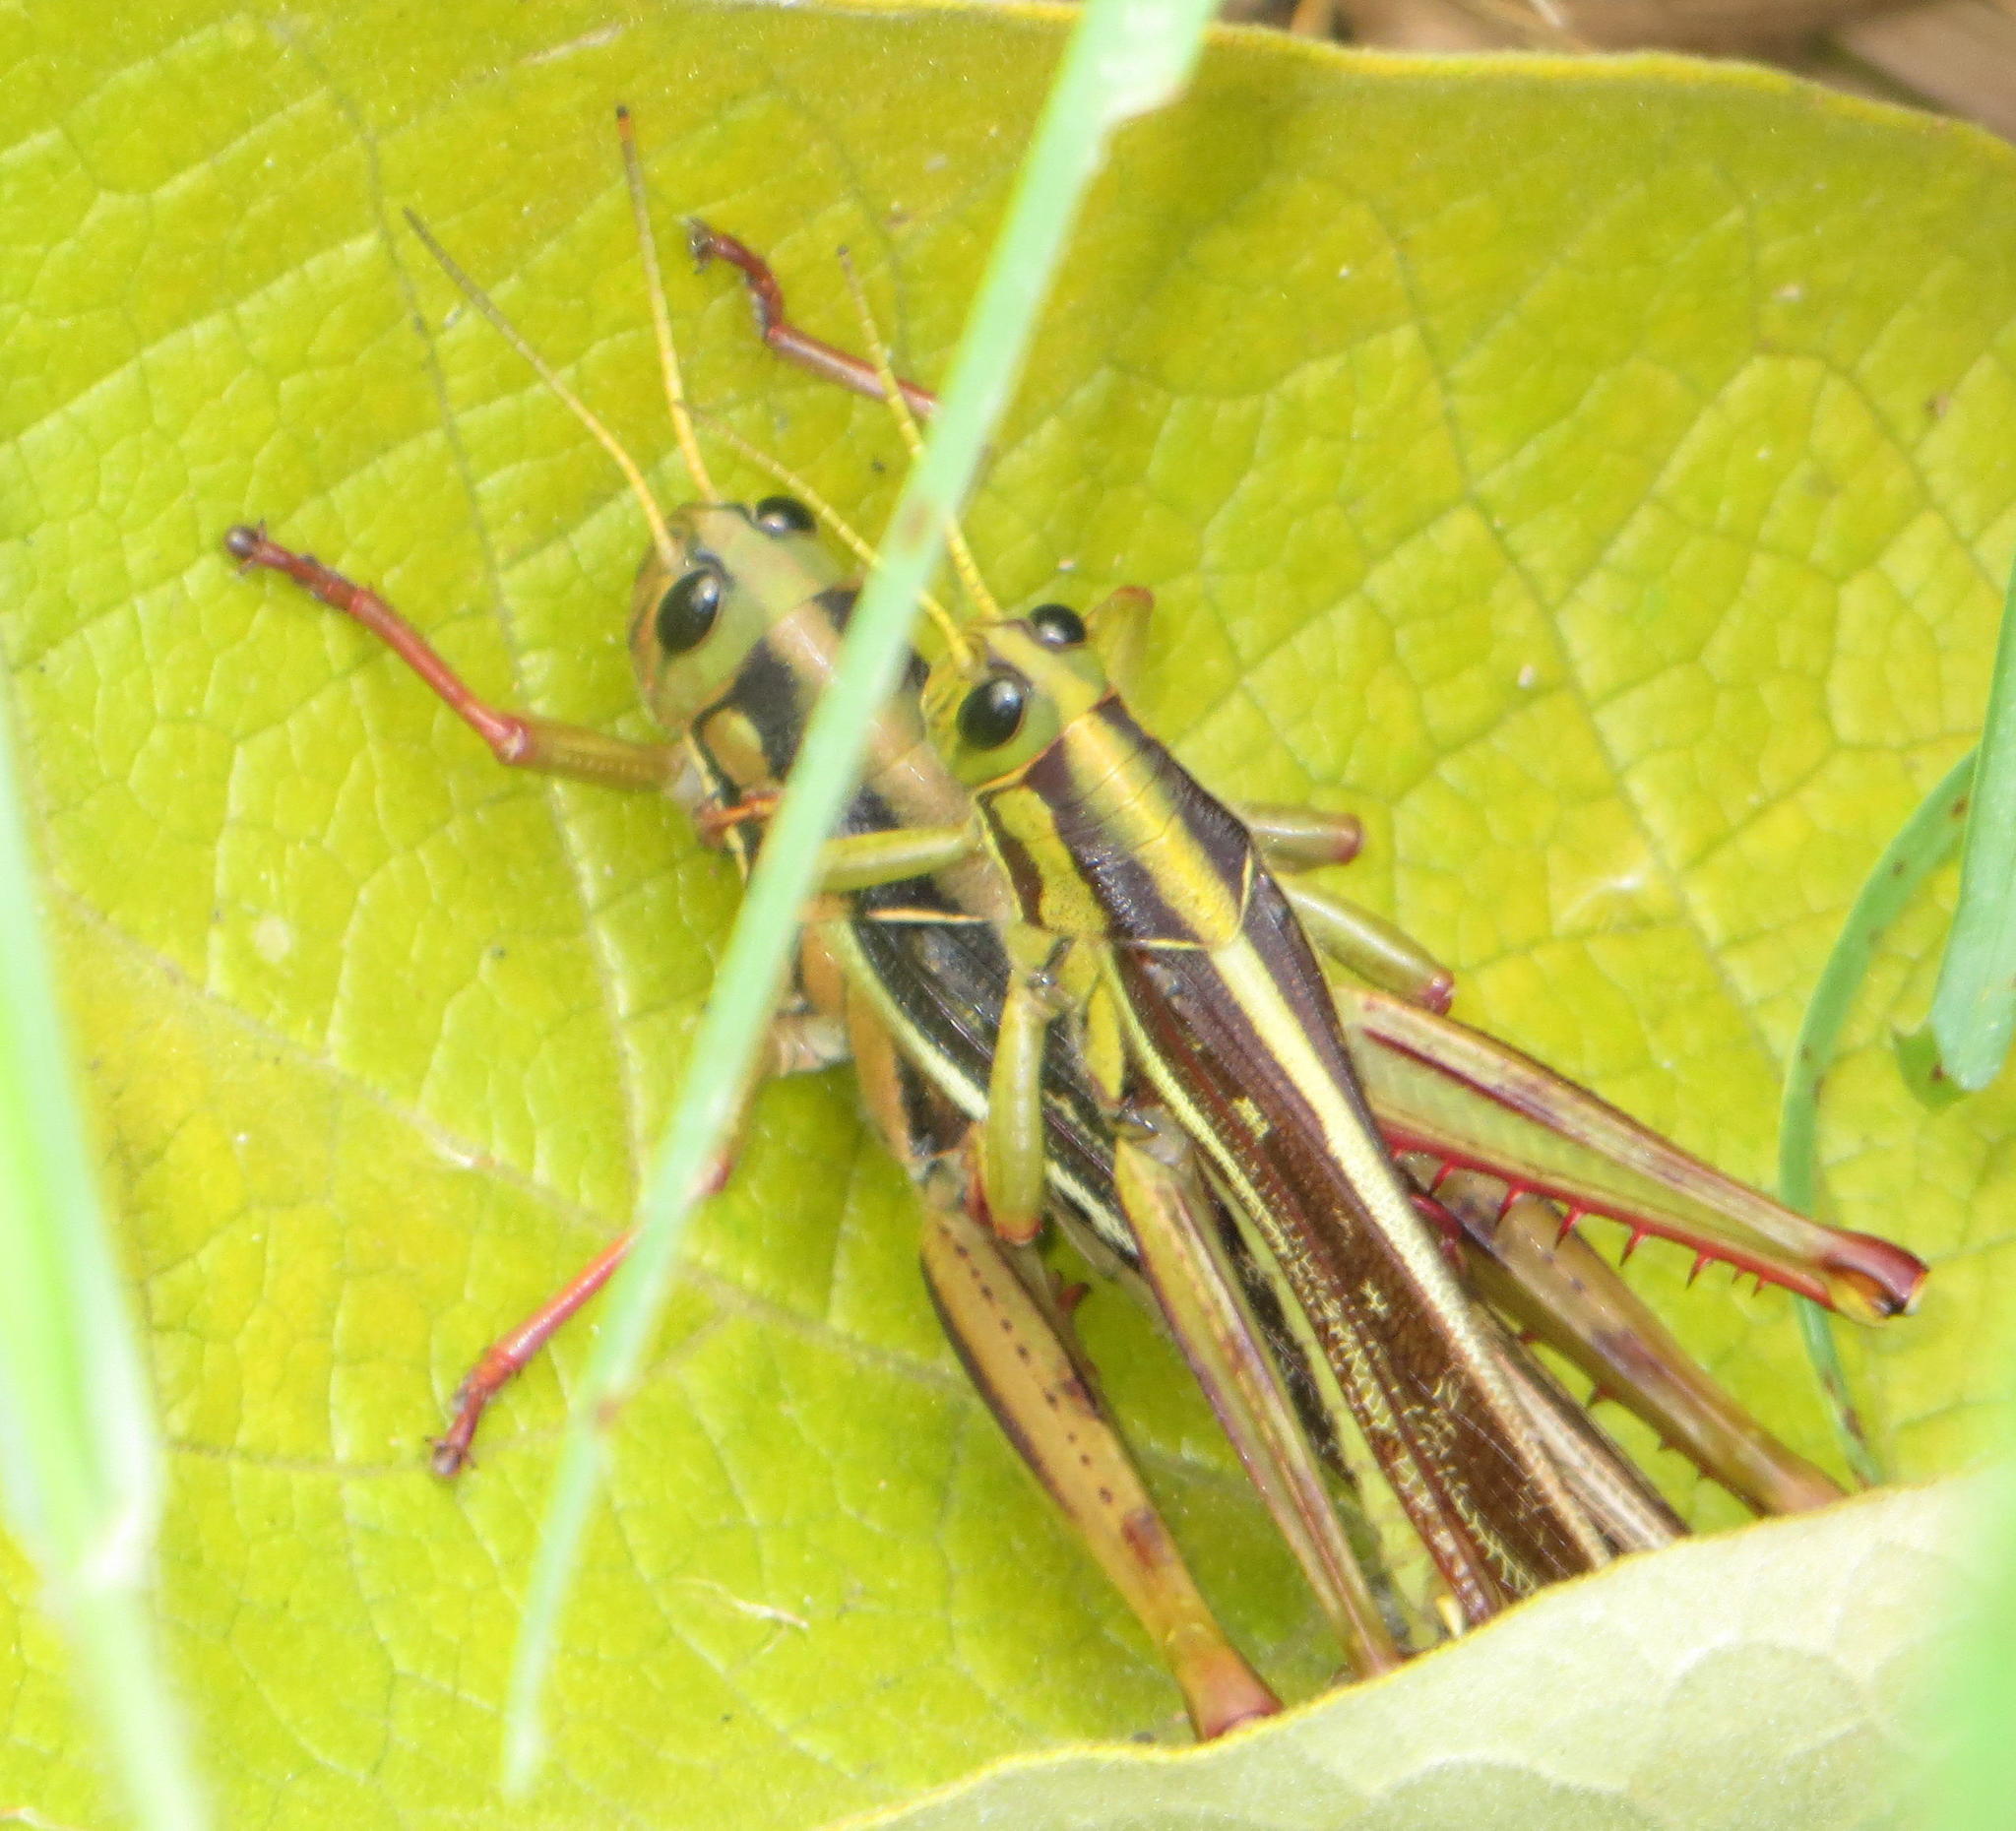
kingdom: Animalia
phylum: Arthropoda
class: Insecta
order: Orthoptera
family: Acrididae
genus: Cyrtacanthacris
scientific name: Cyrtacanthacris aeruginosa
